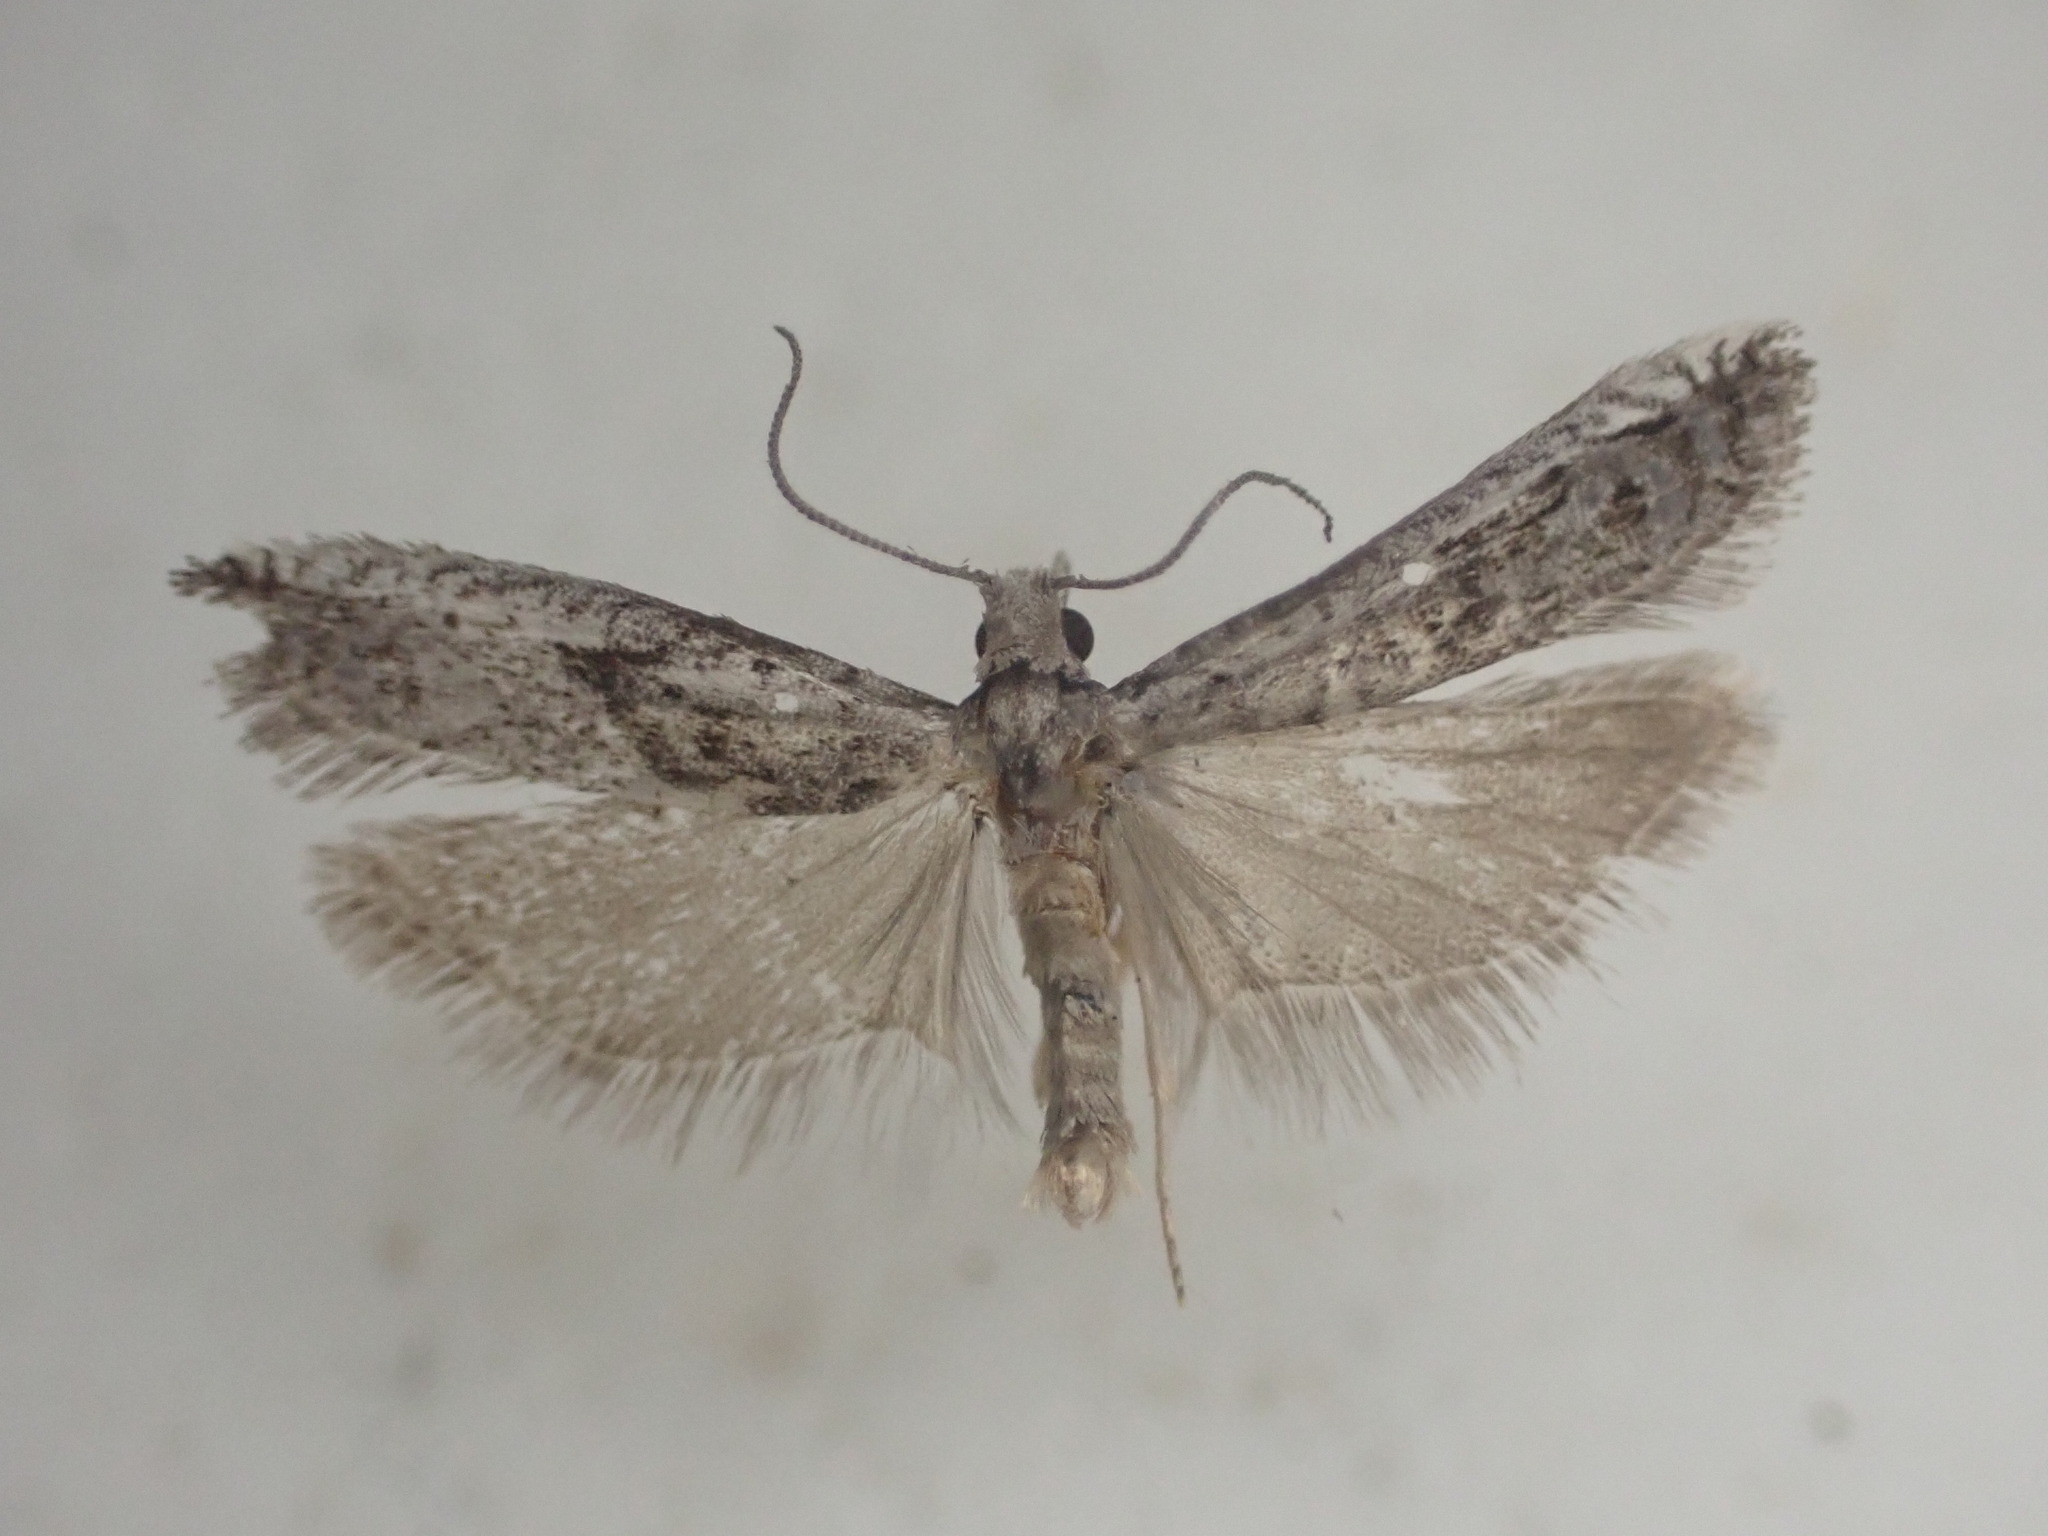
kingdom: Animalia
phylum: Arthropoda
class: Insecta
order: Lepidoptera
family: Tortricidae
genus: Holocola
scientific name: Holocola zopherana
